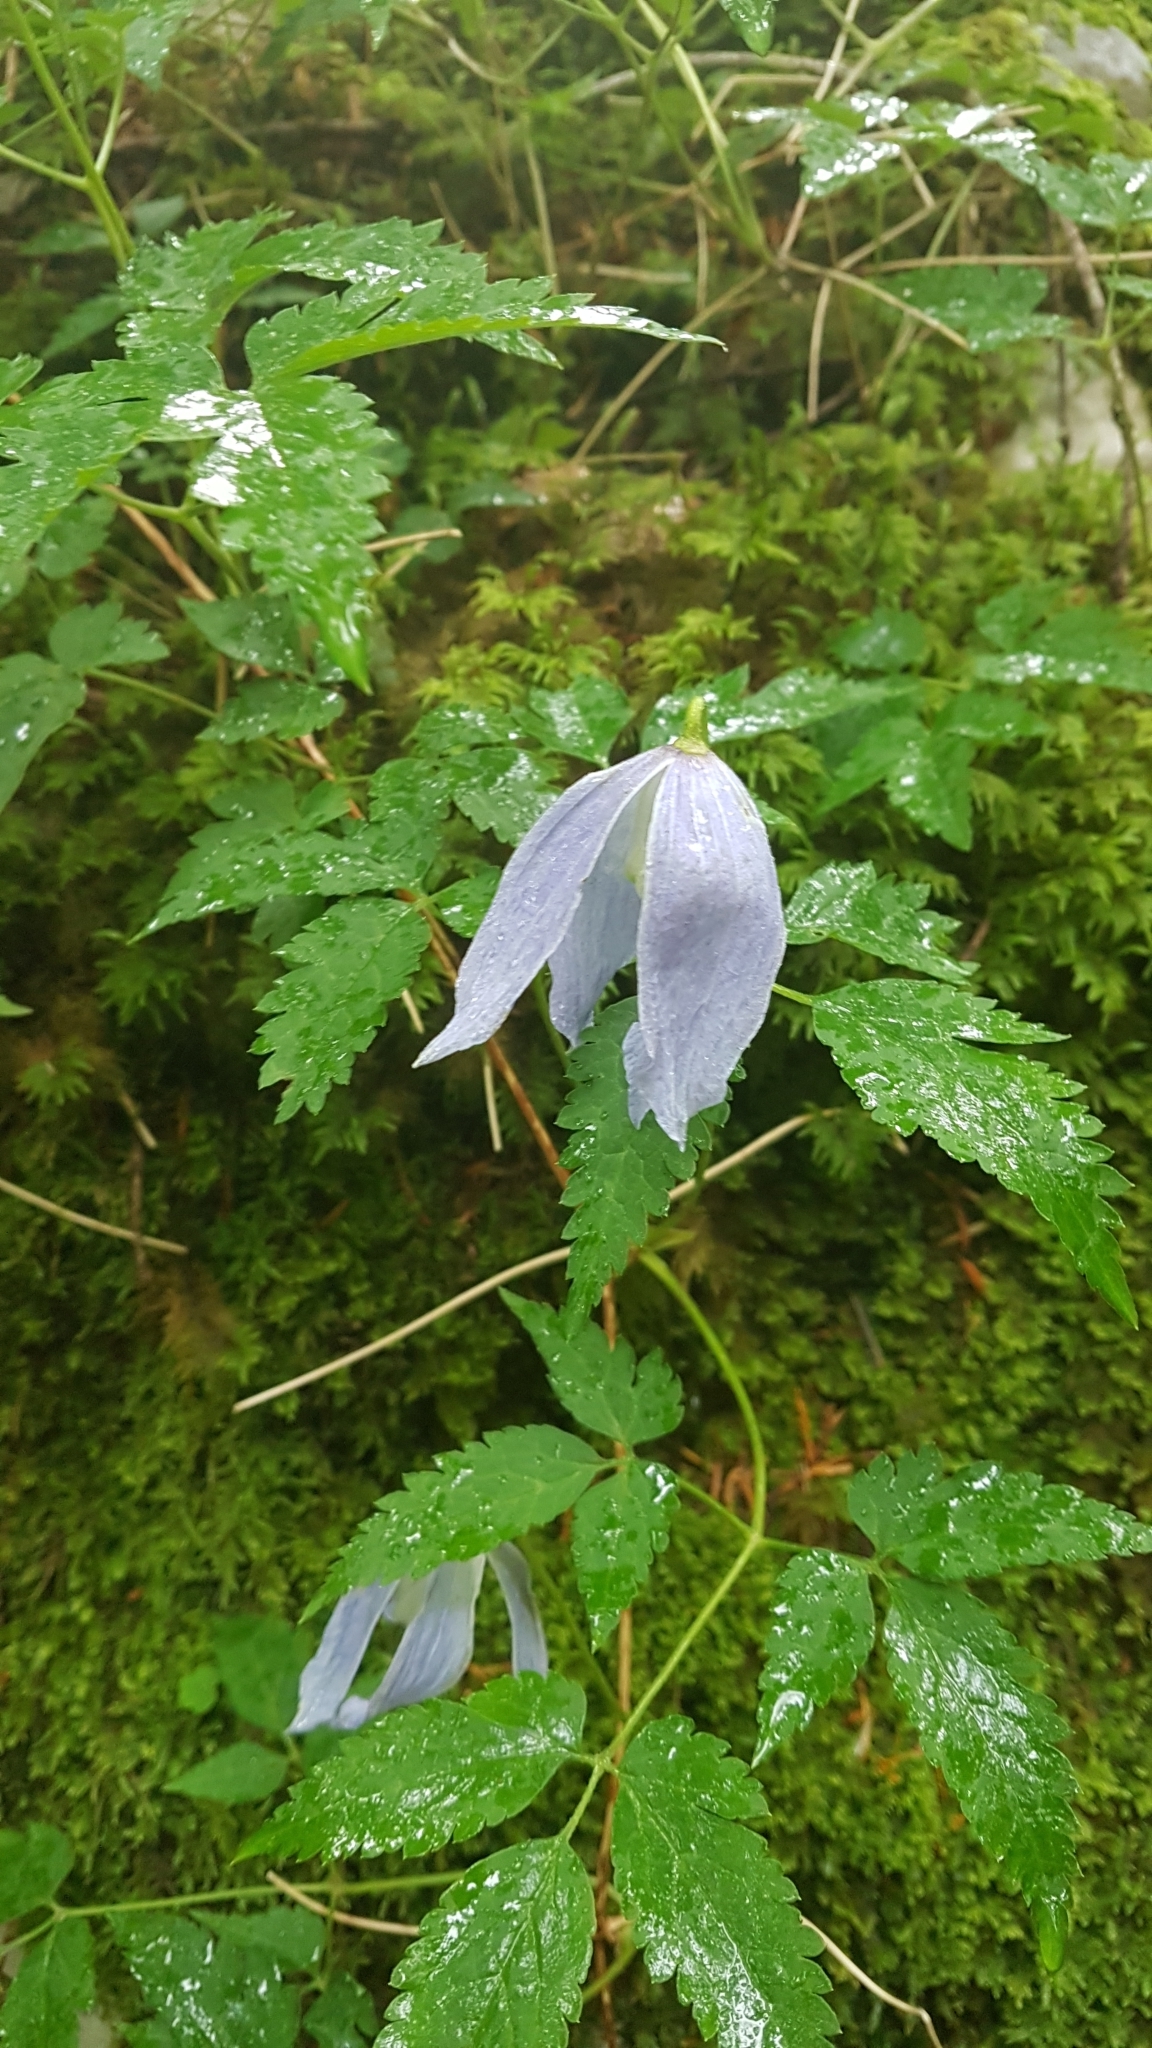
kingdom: Plantae
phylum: Tracheophyta
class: Magnoliopsida
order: Ranunculales
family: Ranunculaceae
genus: Clematis
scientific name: Clematis alpina
